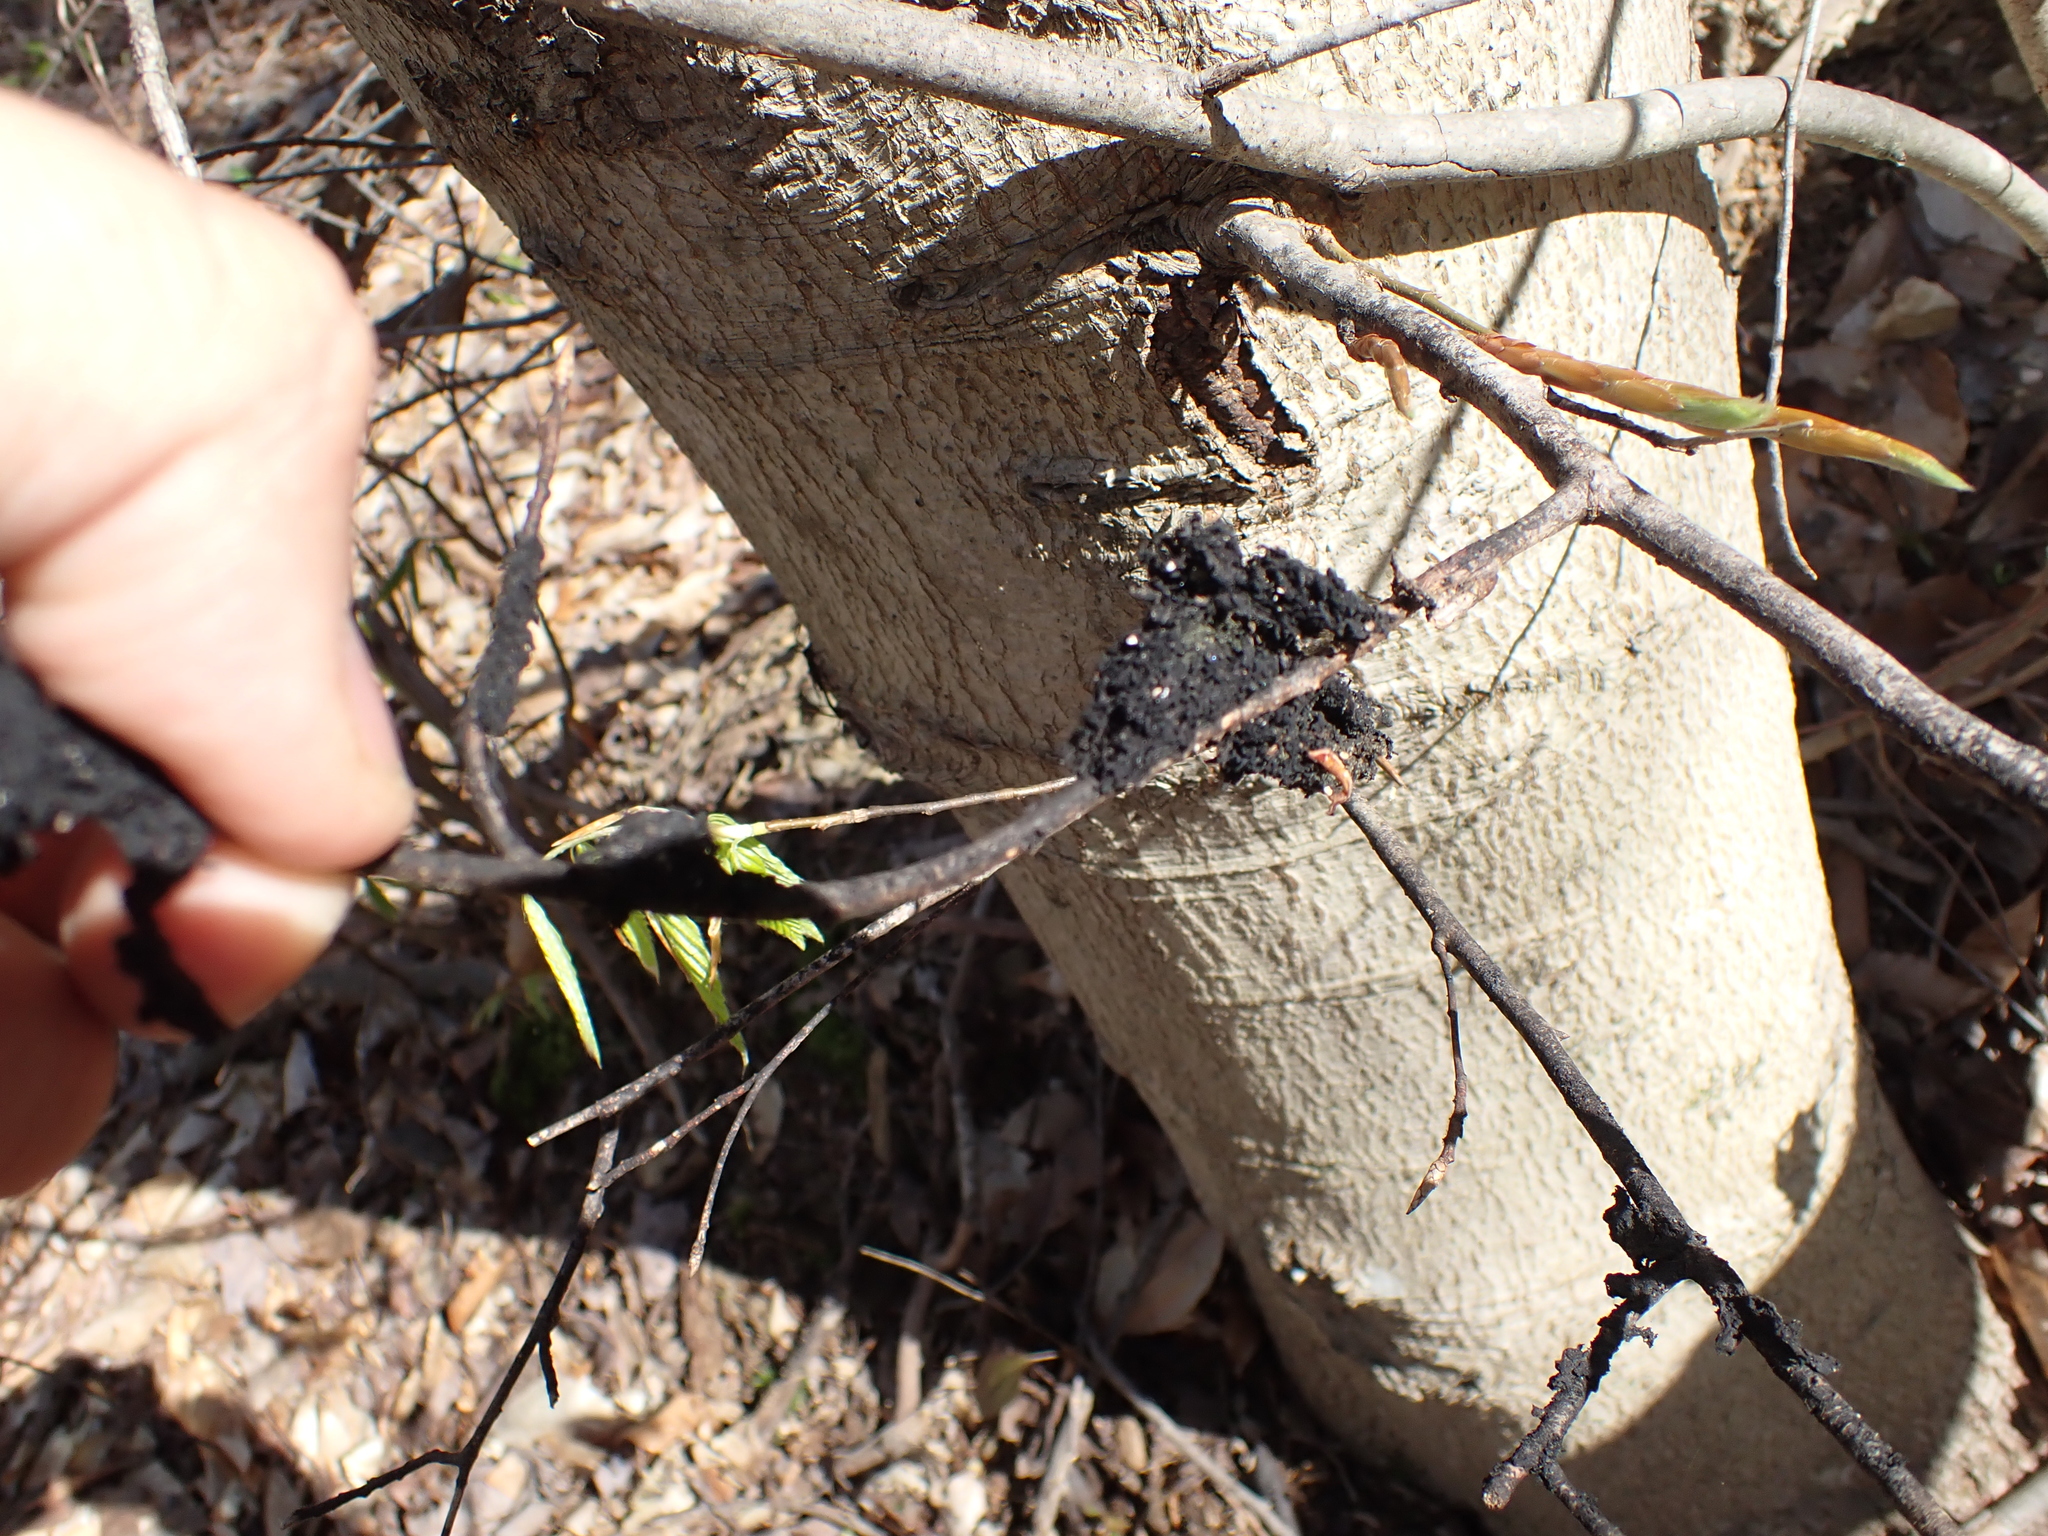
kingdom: Fungi
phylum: Ascomycota
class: Dothideomycetes
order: Capnodiales
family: Capnodiaceae
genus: Scorias
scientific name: Scorias spongiosa
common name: Black sooty mold
